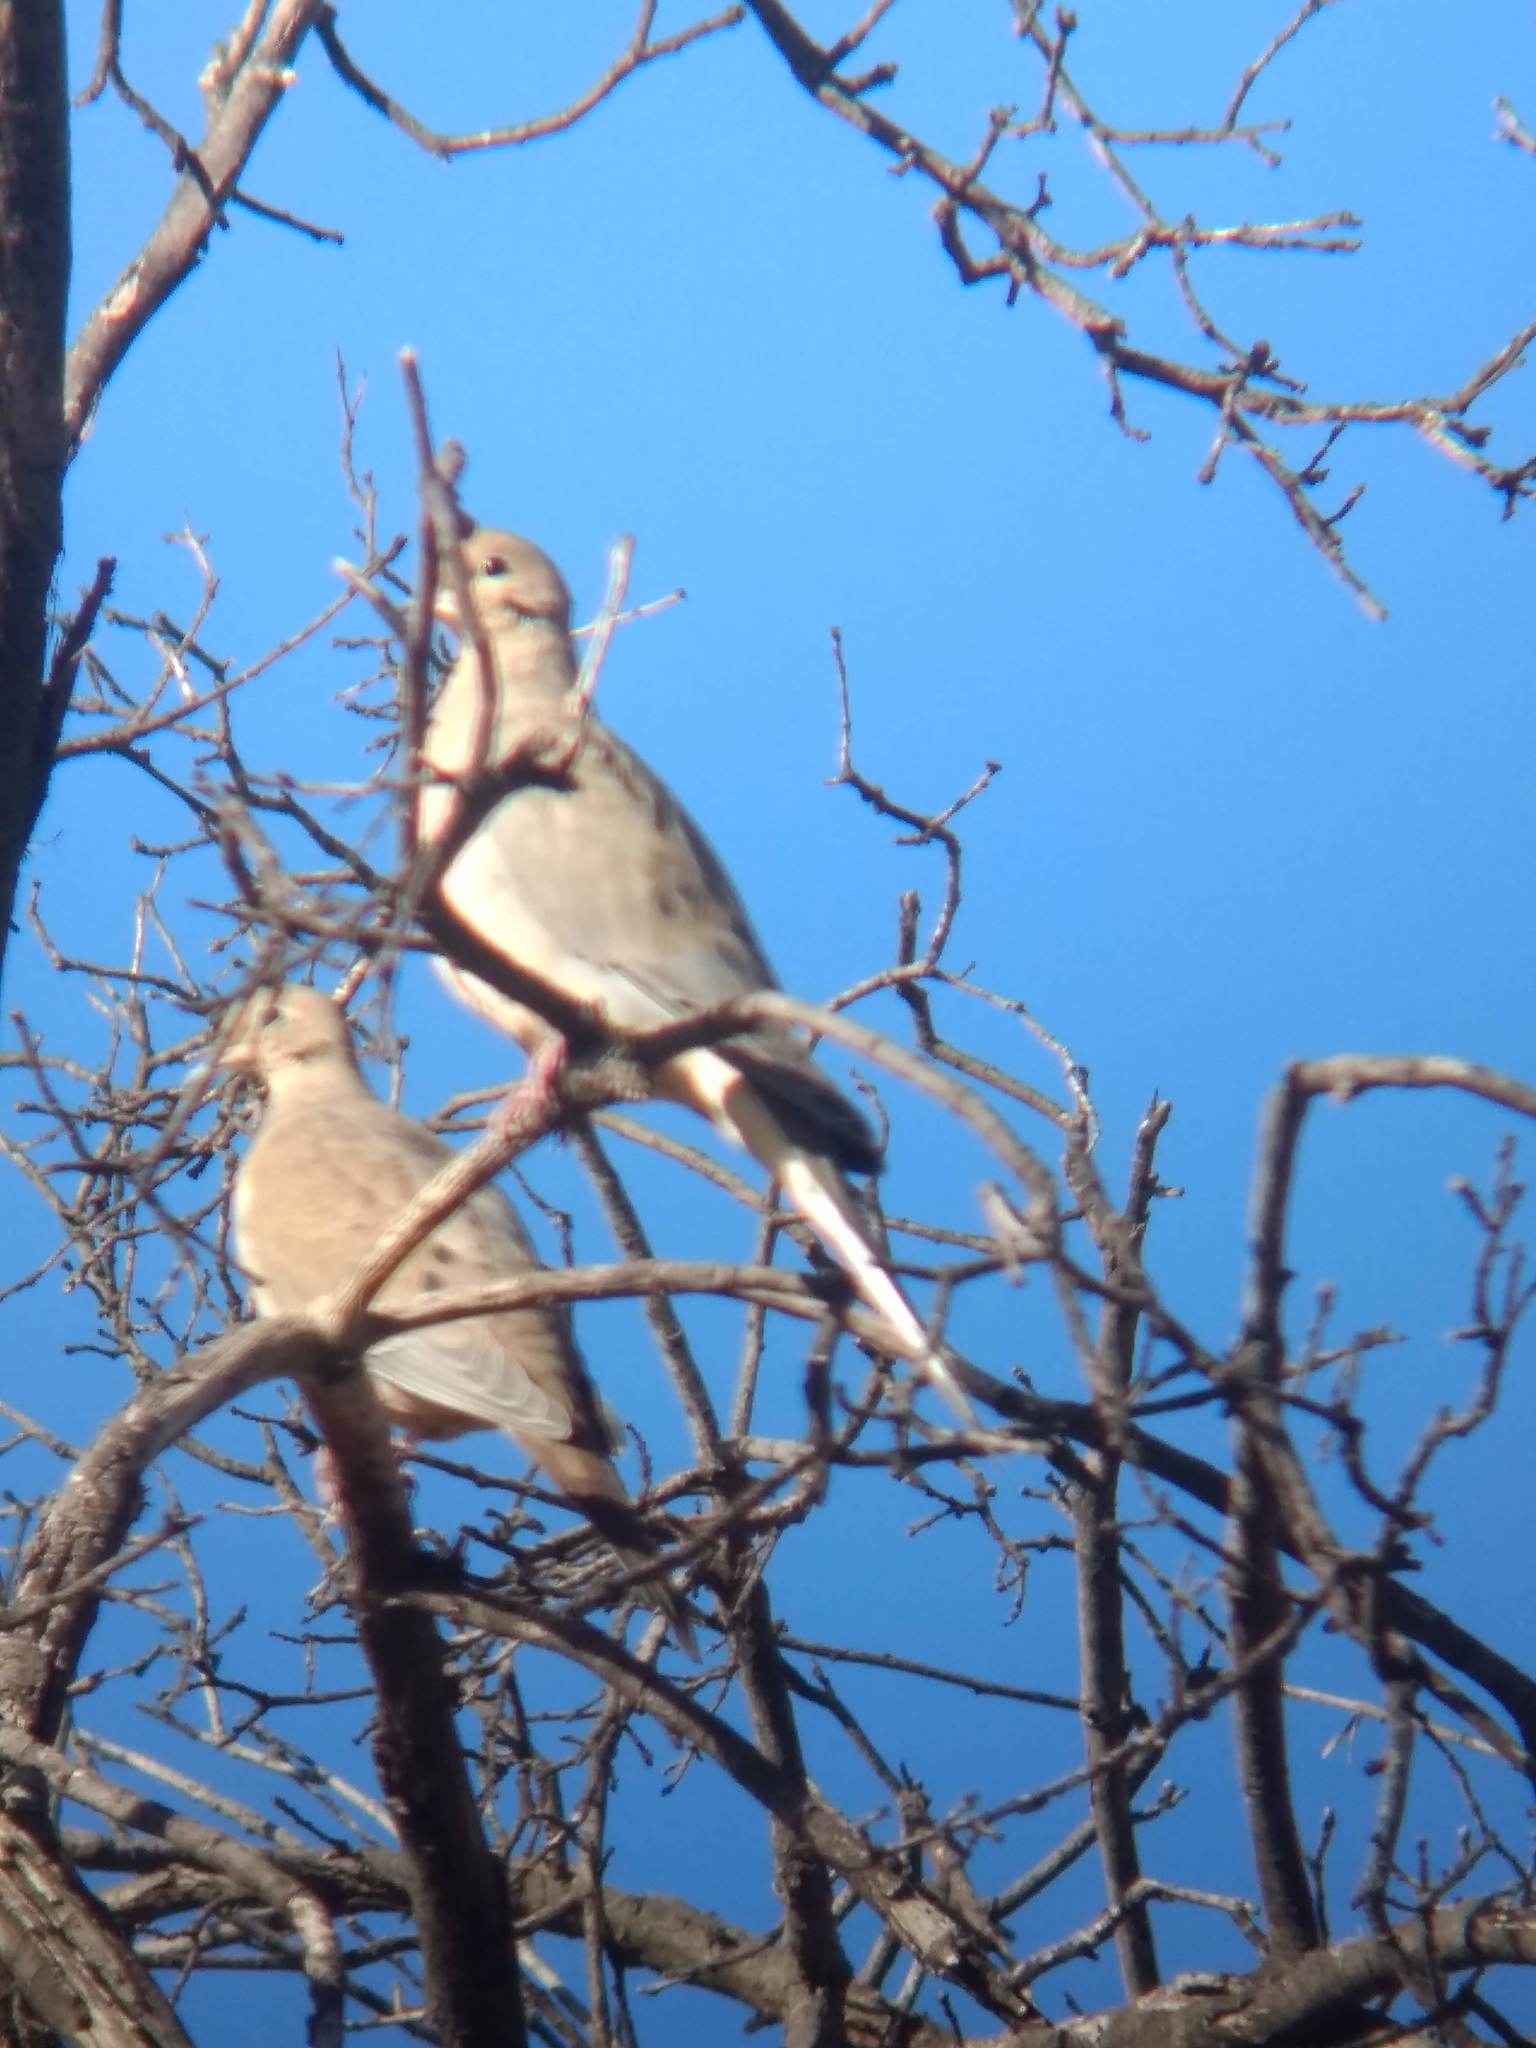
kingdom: Animalia
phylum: Chordata
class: Aves
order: Columbiformes
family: Columbidae
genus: Zenaida
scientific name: Zenaida macroura
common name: Mourning dove
